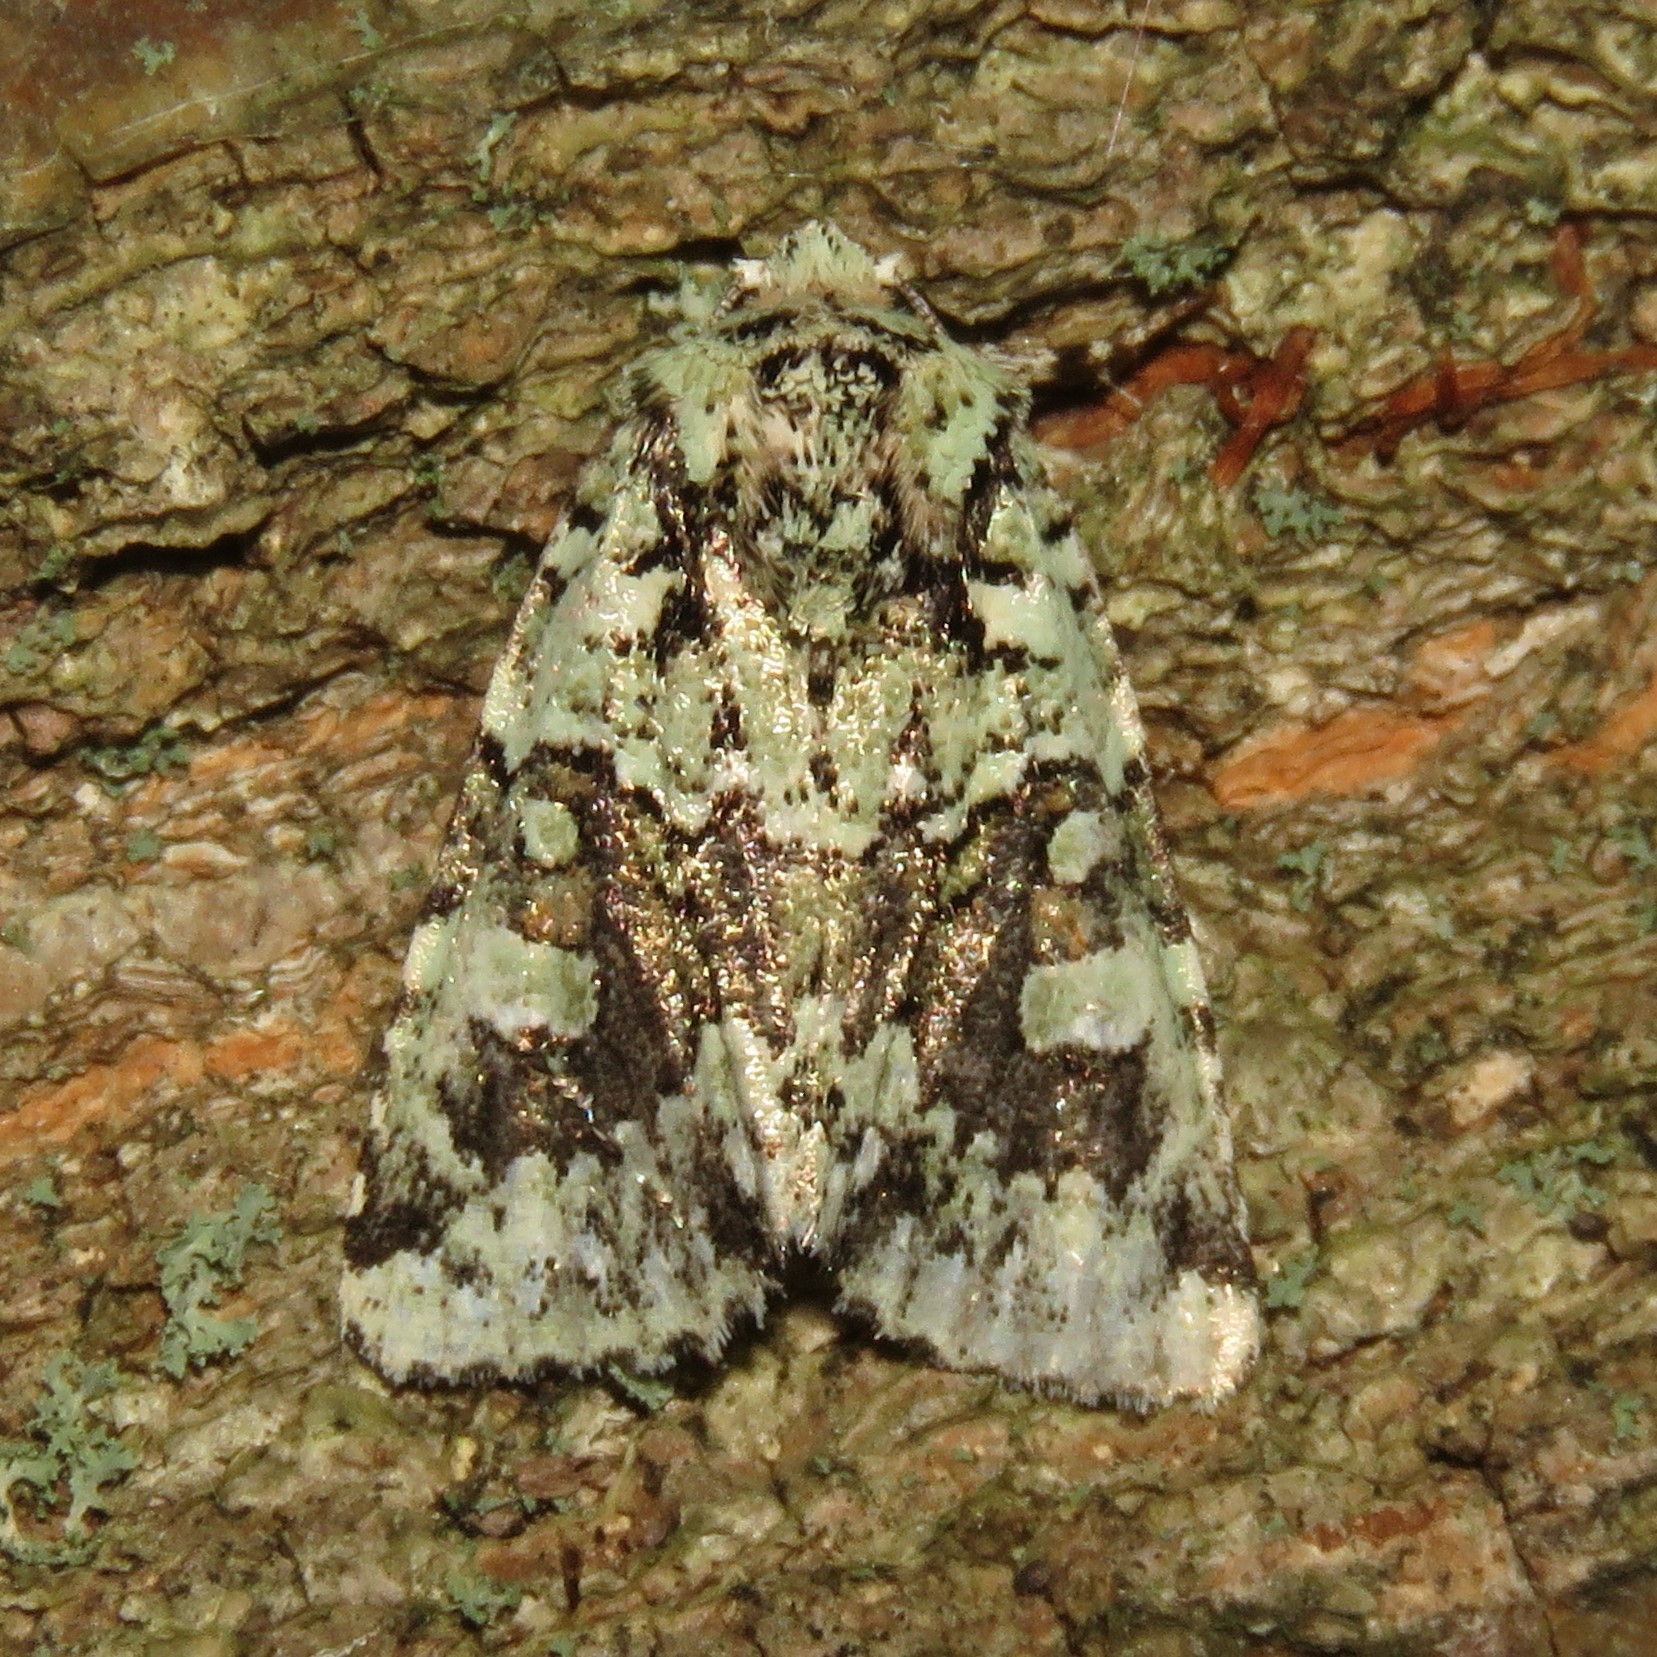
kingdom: Animalia
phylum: Arthropoda
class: Insecta
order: Lepidoptera
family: Noctuidae
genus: Lacinipolia
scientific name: Lacinipolia implicata
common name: Implicit arches
